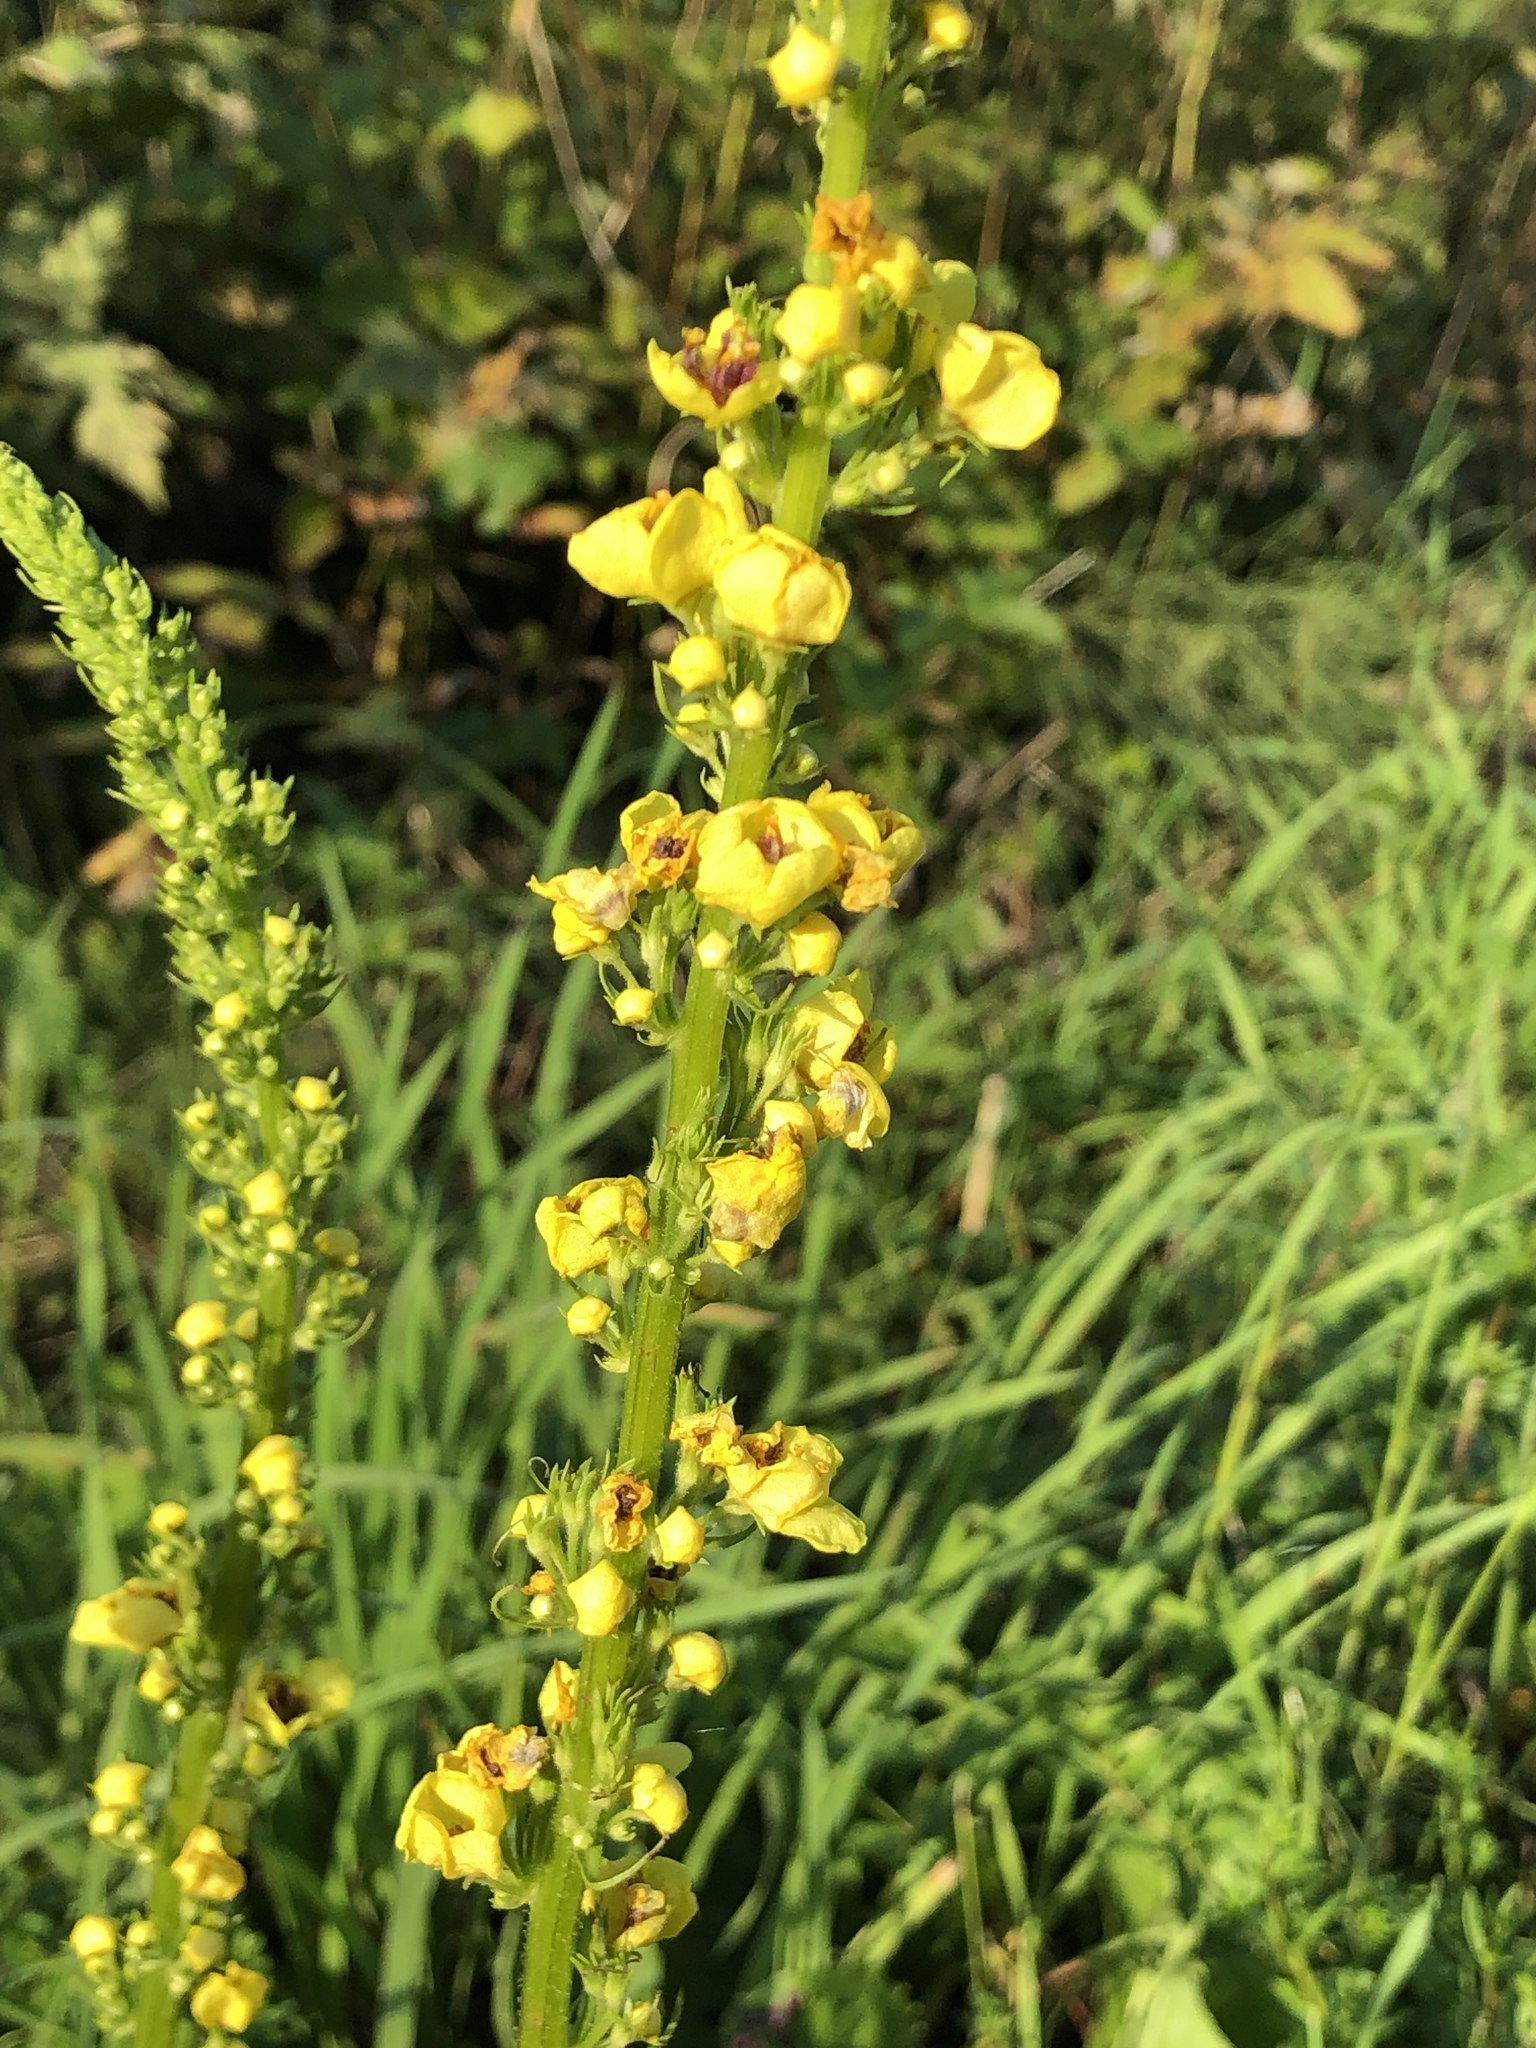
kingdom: Plantae
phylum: Tracheophyta
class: Magnoliopsida
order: Lamiales
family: Scrophulariaceae
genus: Verbascum
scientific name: Verbascum nigrum
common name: Dark mullein
